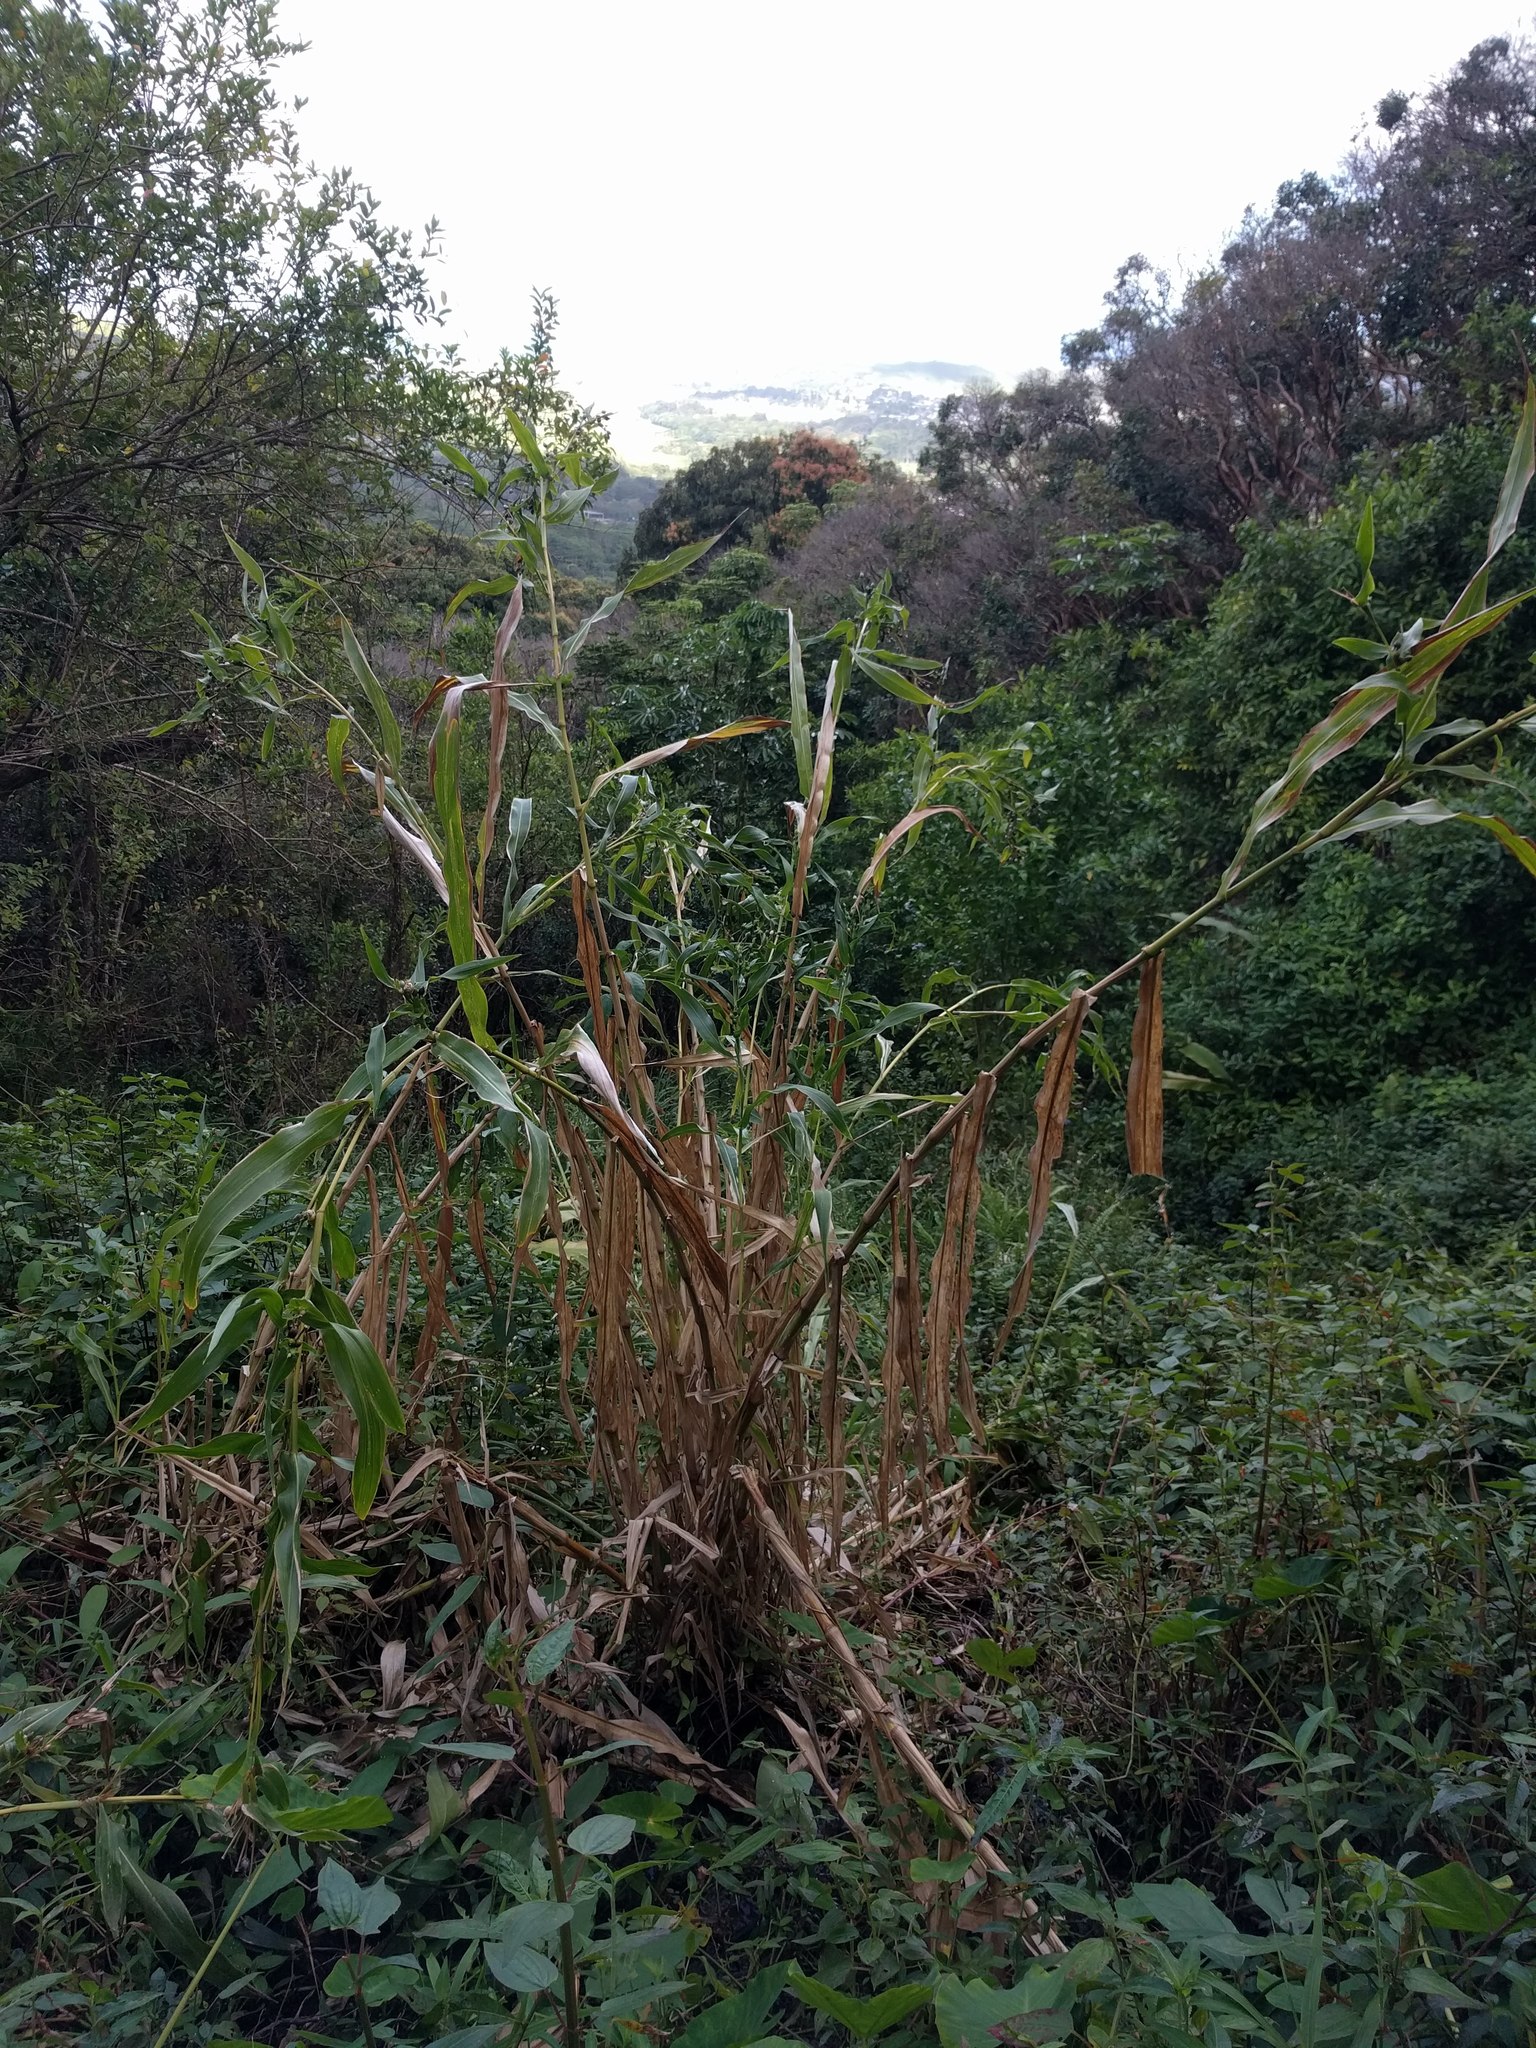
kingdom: Plantae
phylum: Tracheophyta
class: Liliopsida
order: Poales
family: Poaceae
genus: Coix
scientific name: Coix lacryma-jobi
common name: Job's tears
